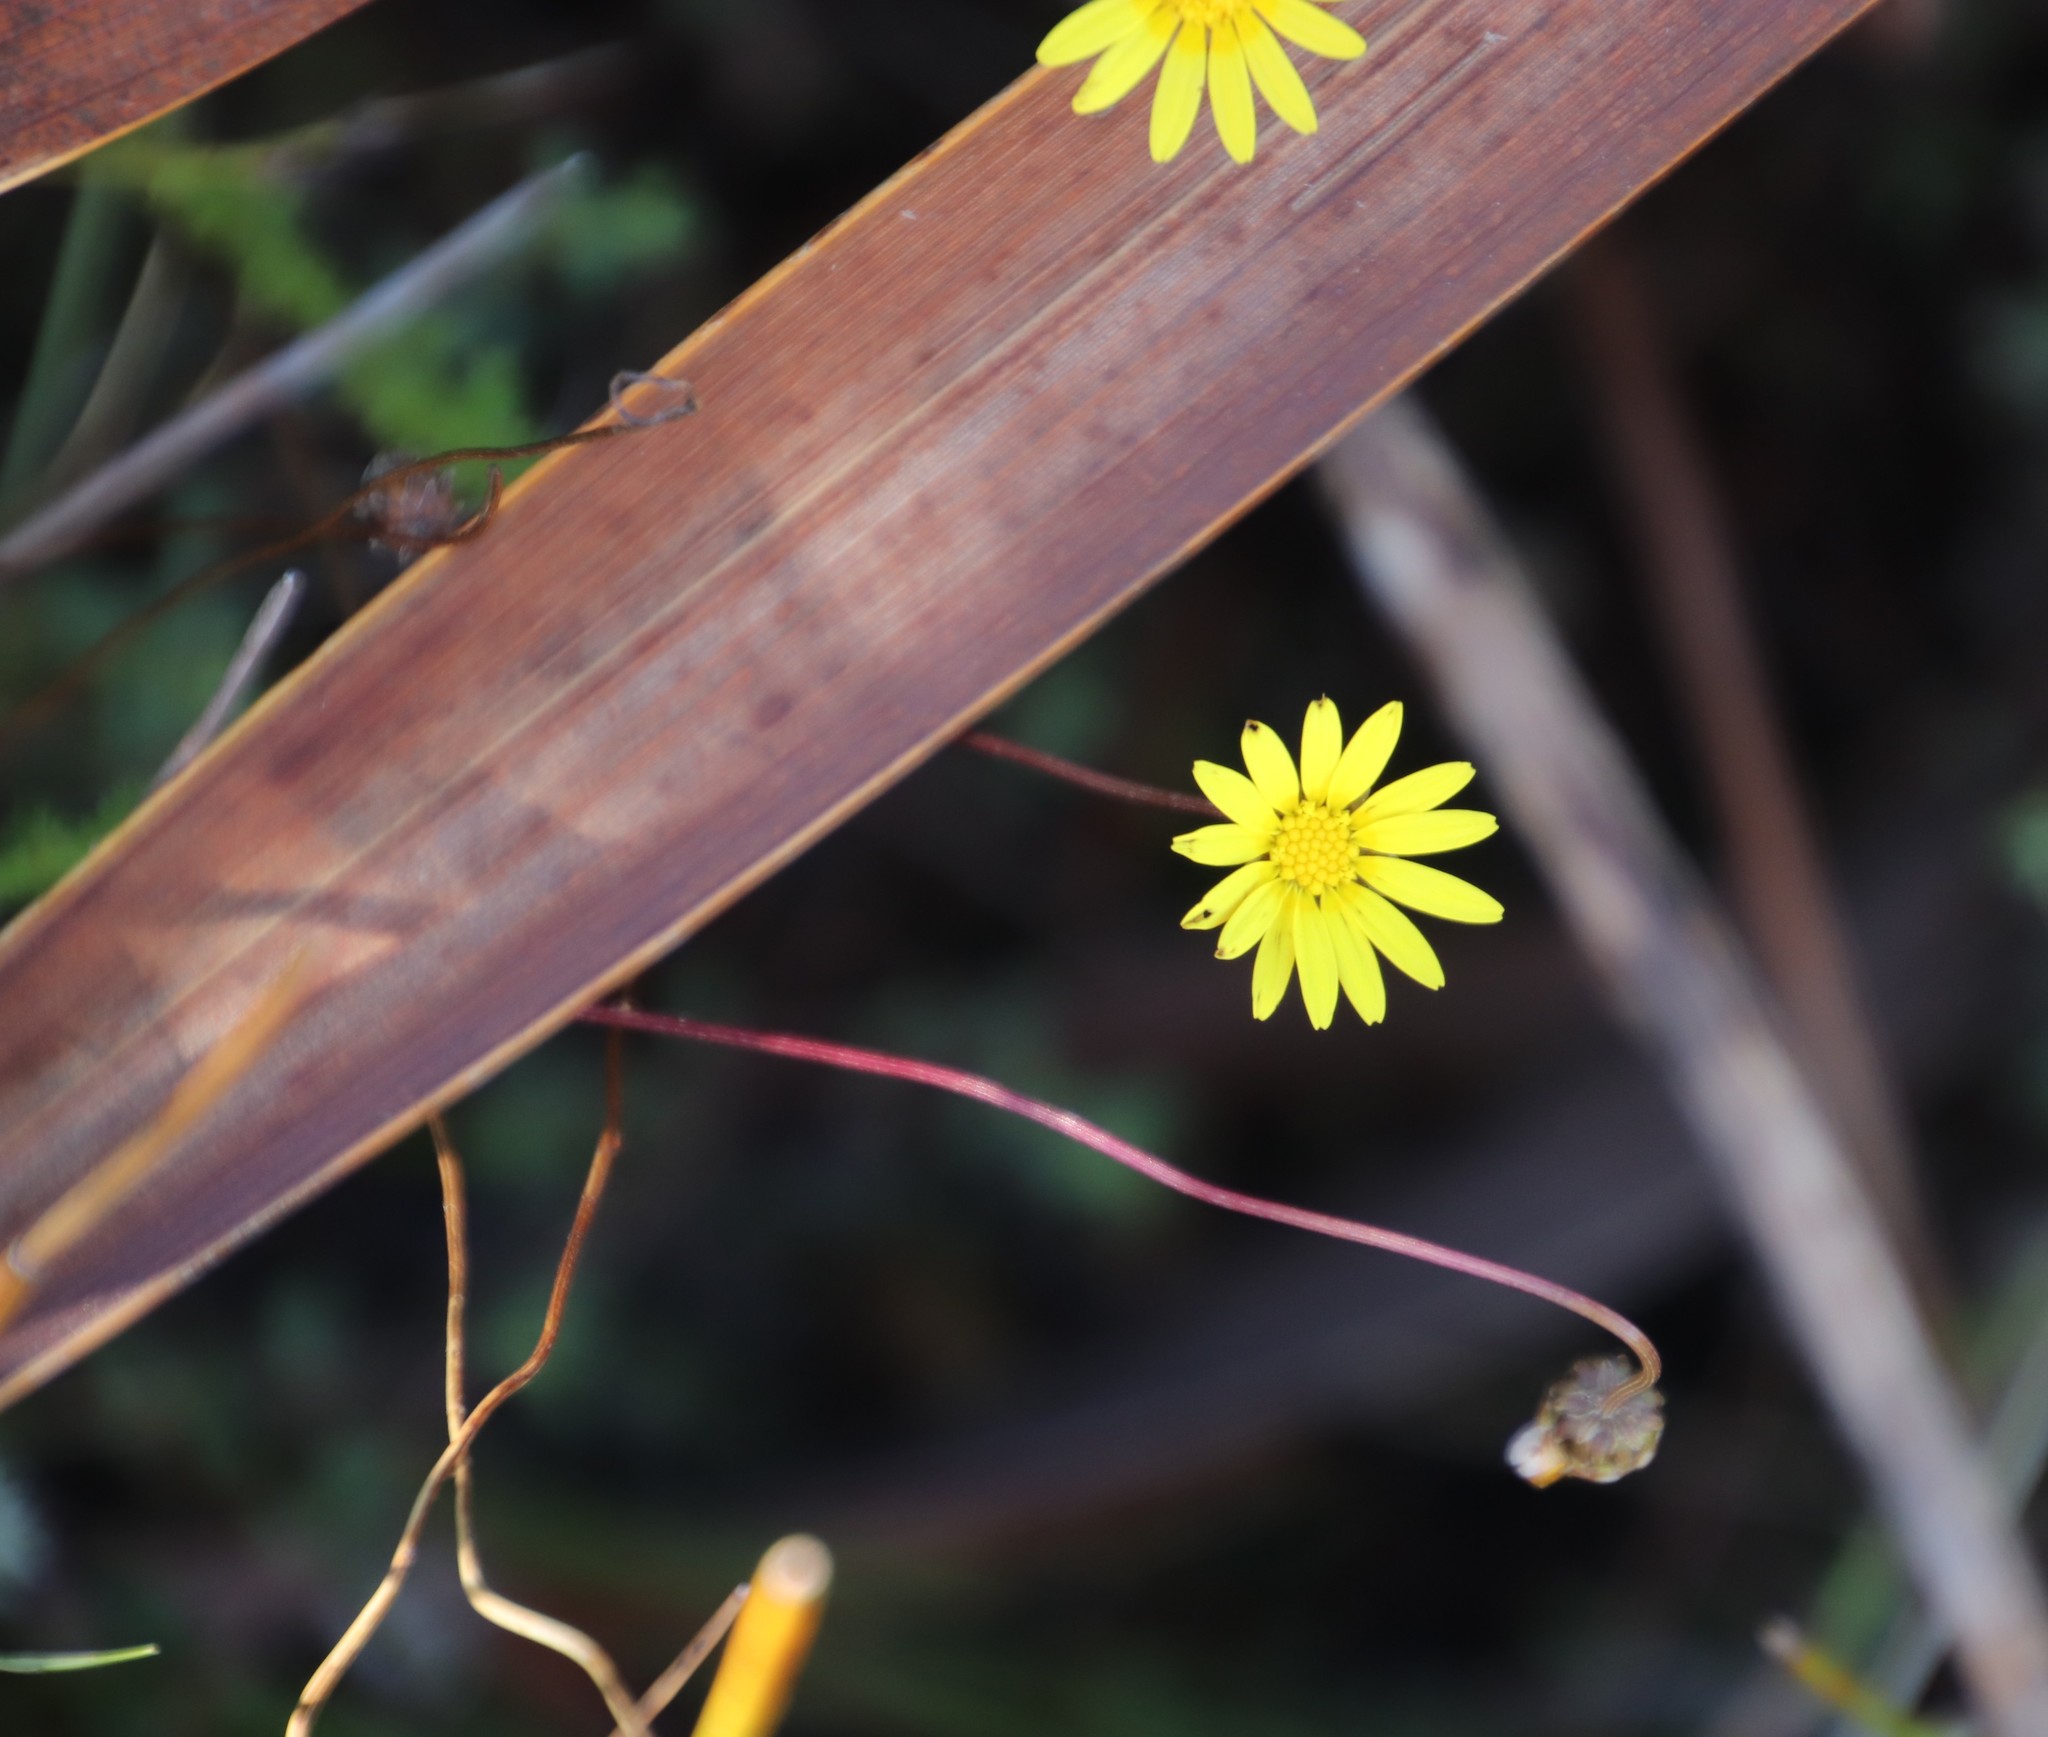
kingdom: Plantae
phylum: Tracheophyta
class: Magnoliopsida
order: Asterales
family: Asteraceae
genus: Ursinia
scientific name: Ursinia dentata
